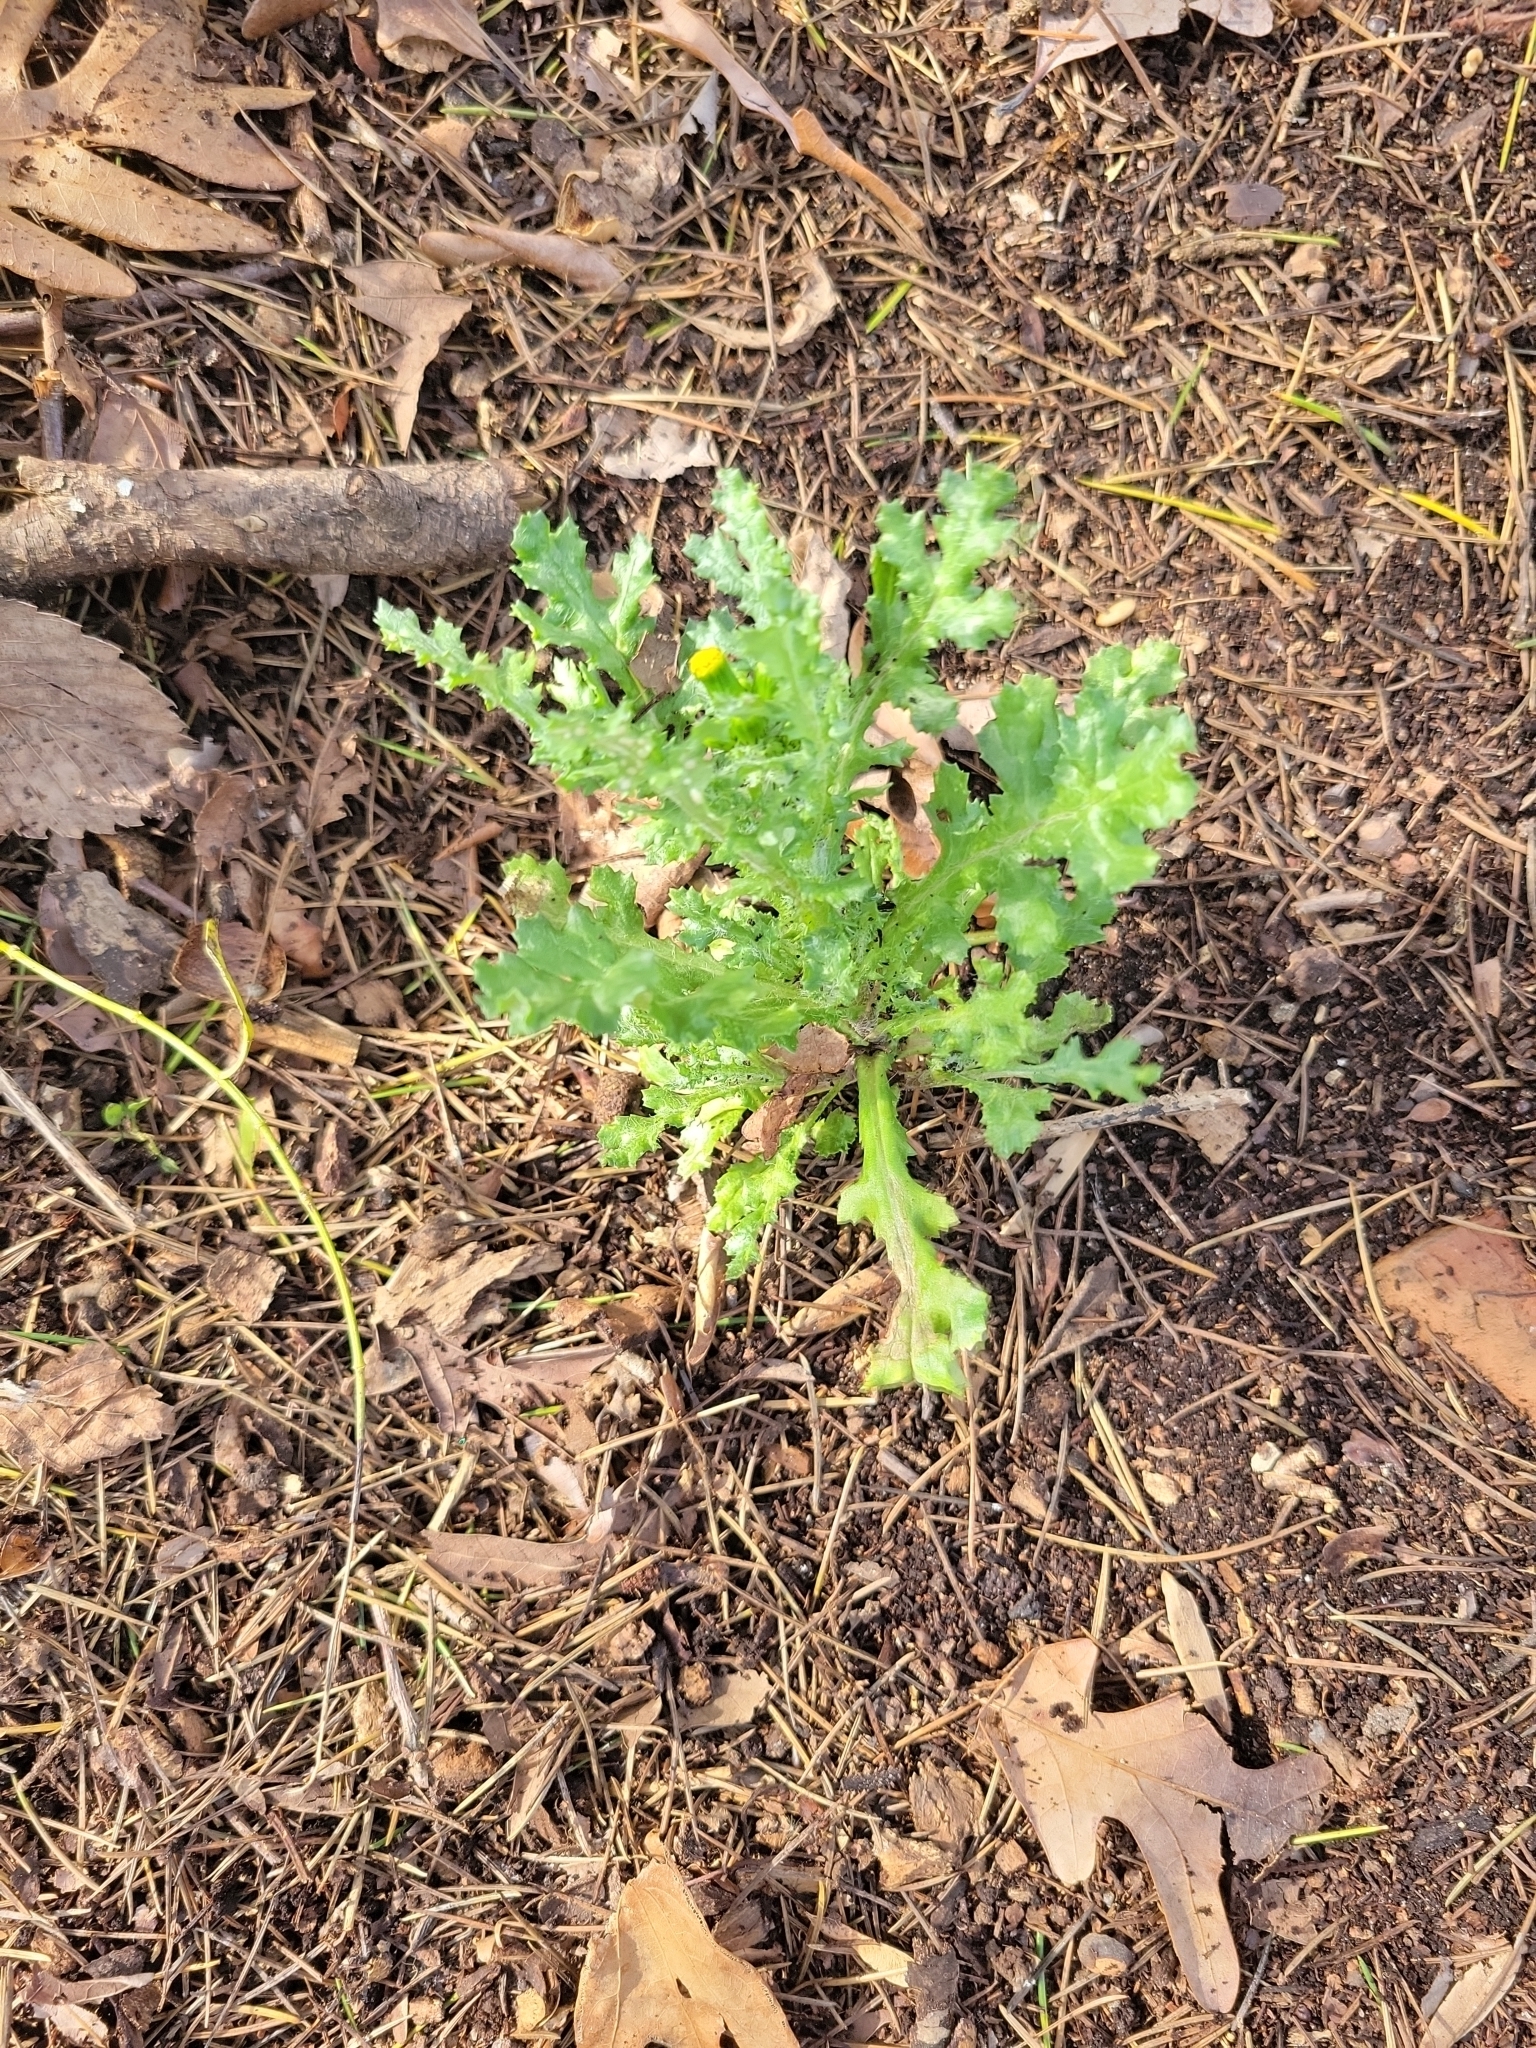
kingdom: Plantae
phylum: Tracheophyta
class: Magnoliopsida
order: Asterales
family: Asteraceae
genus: Senecio
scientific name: Senecio vulgaris
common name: Old-man-in-the-spring
